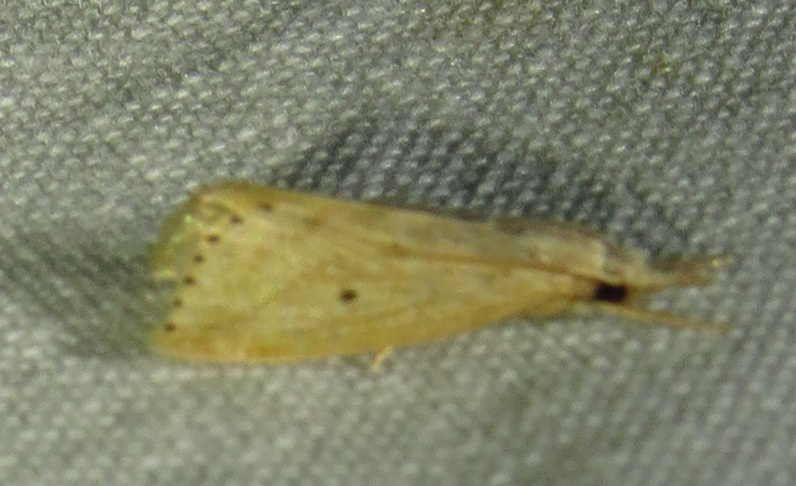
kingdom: Animalia
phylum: Arthropoda
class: Insecta
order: Lepidoptera
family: Crambidae
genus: Diatraea
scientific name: Diatraea lisetta
